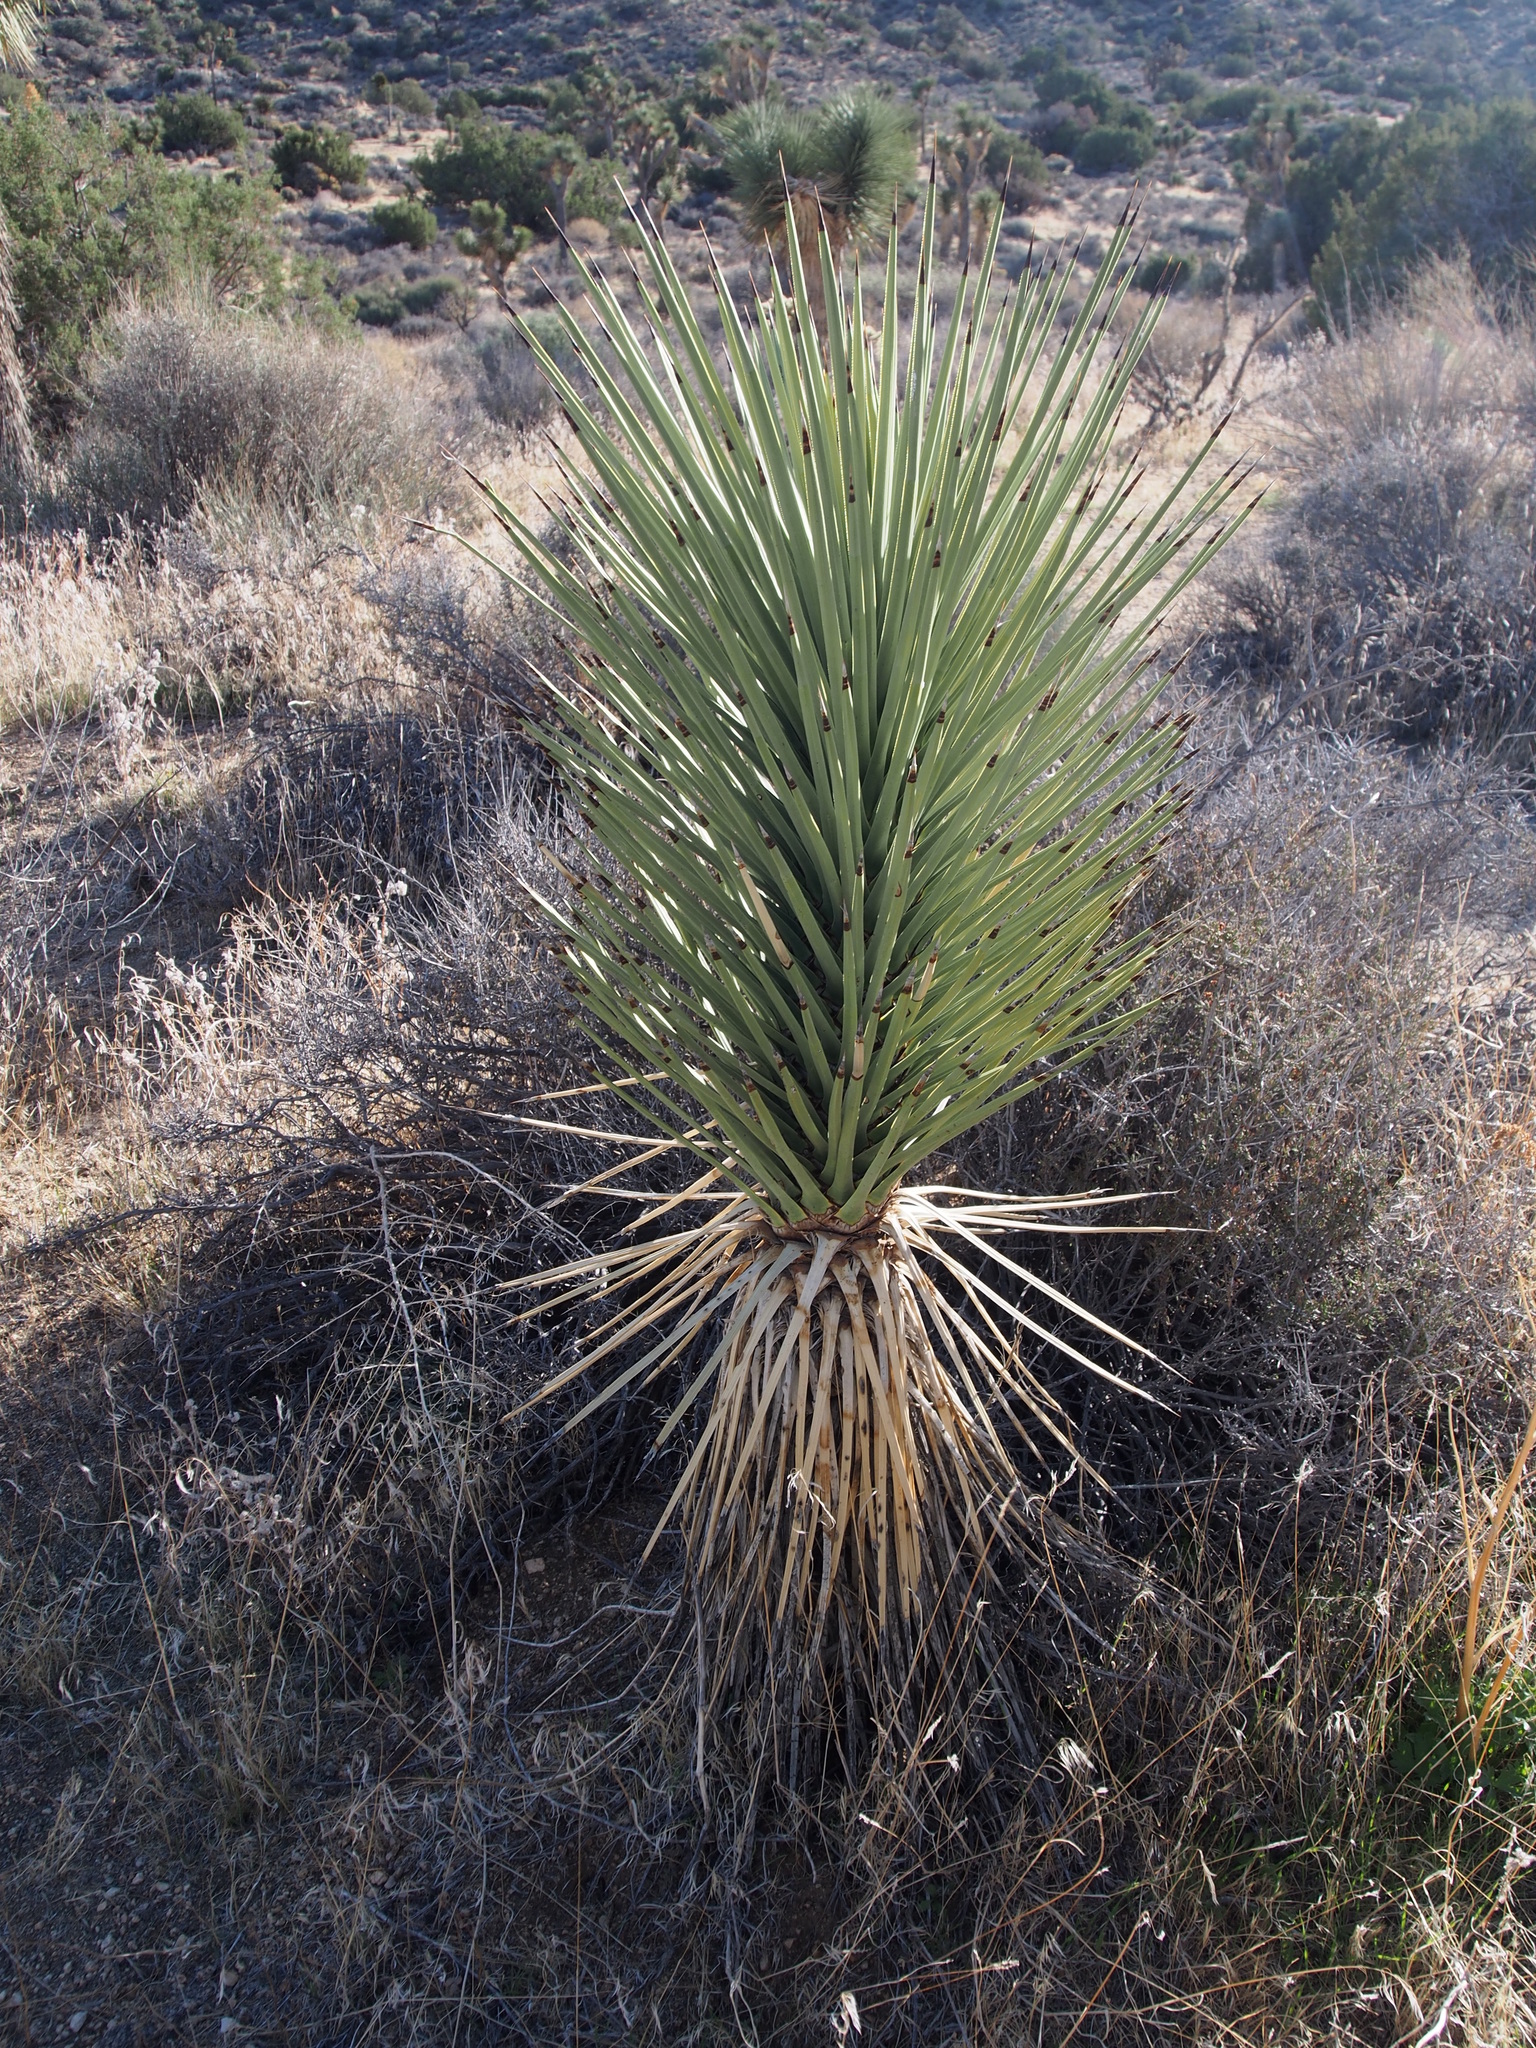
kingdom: Plantae
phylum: Tracheophyta
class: Liliopsida
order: Asparagales
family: Asparagaceae
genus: Yucca
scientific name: Yucca brevifolia
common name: Joshua tree
